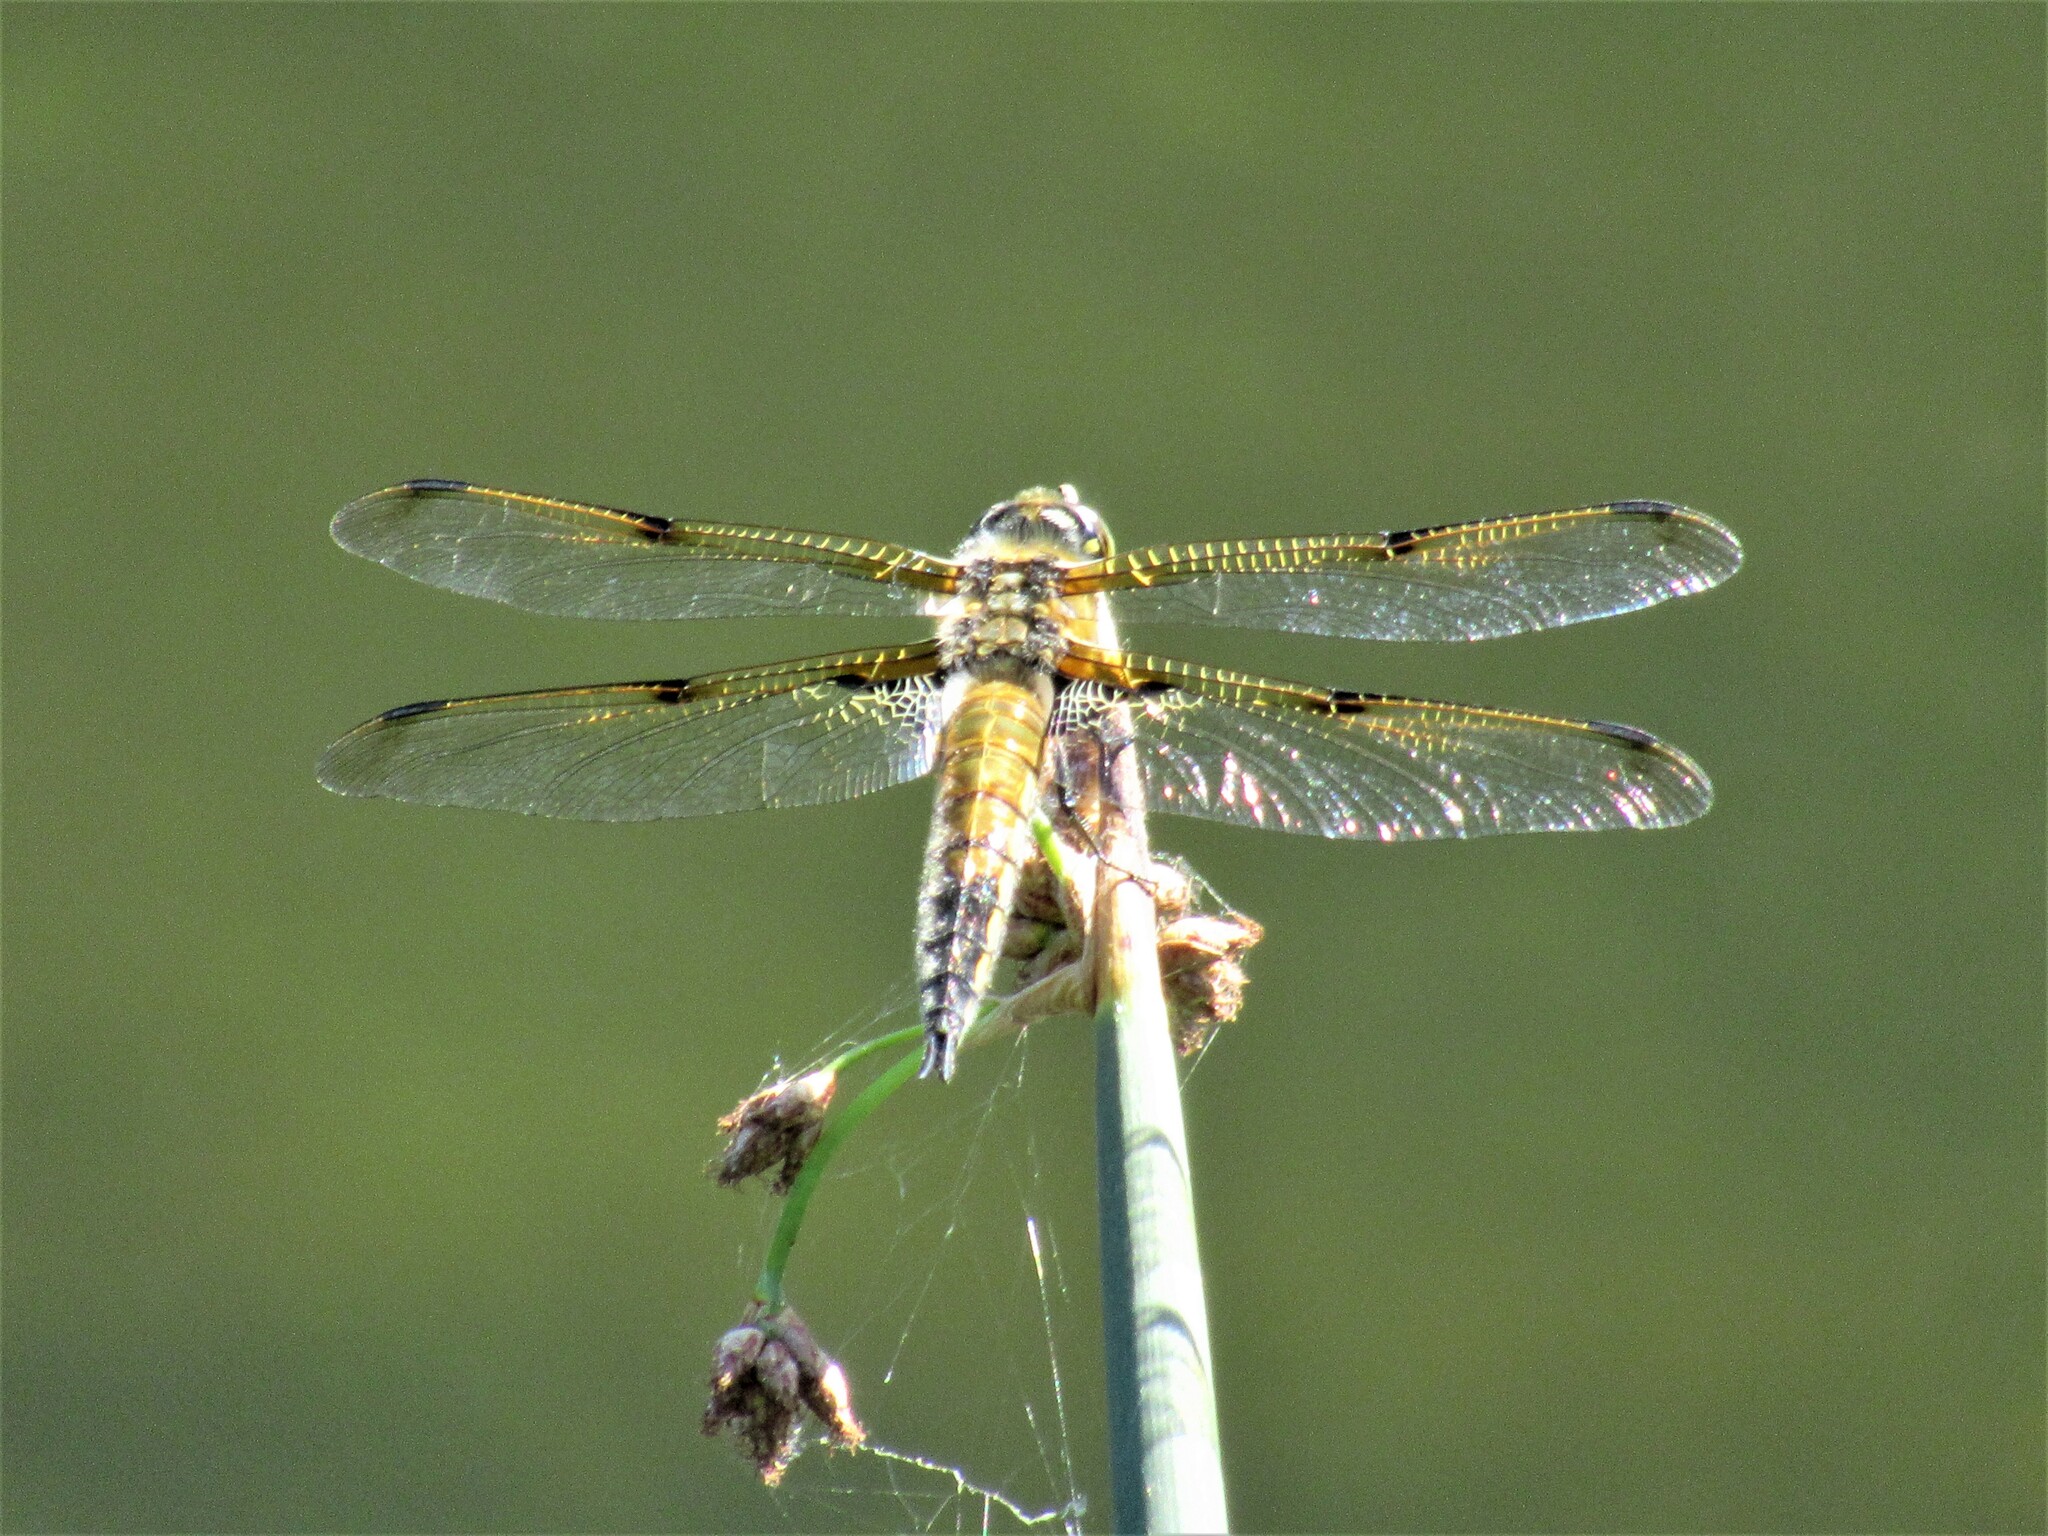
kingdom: Animalia
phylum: Arthropoda
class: Insecta
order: Odonata
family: Libellulidae
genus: Libellula
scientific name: Libellula quadrimaculata
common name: Four-spotted chaser
